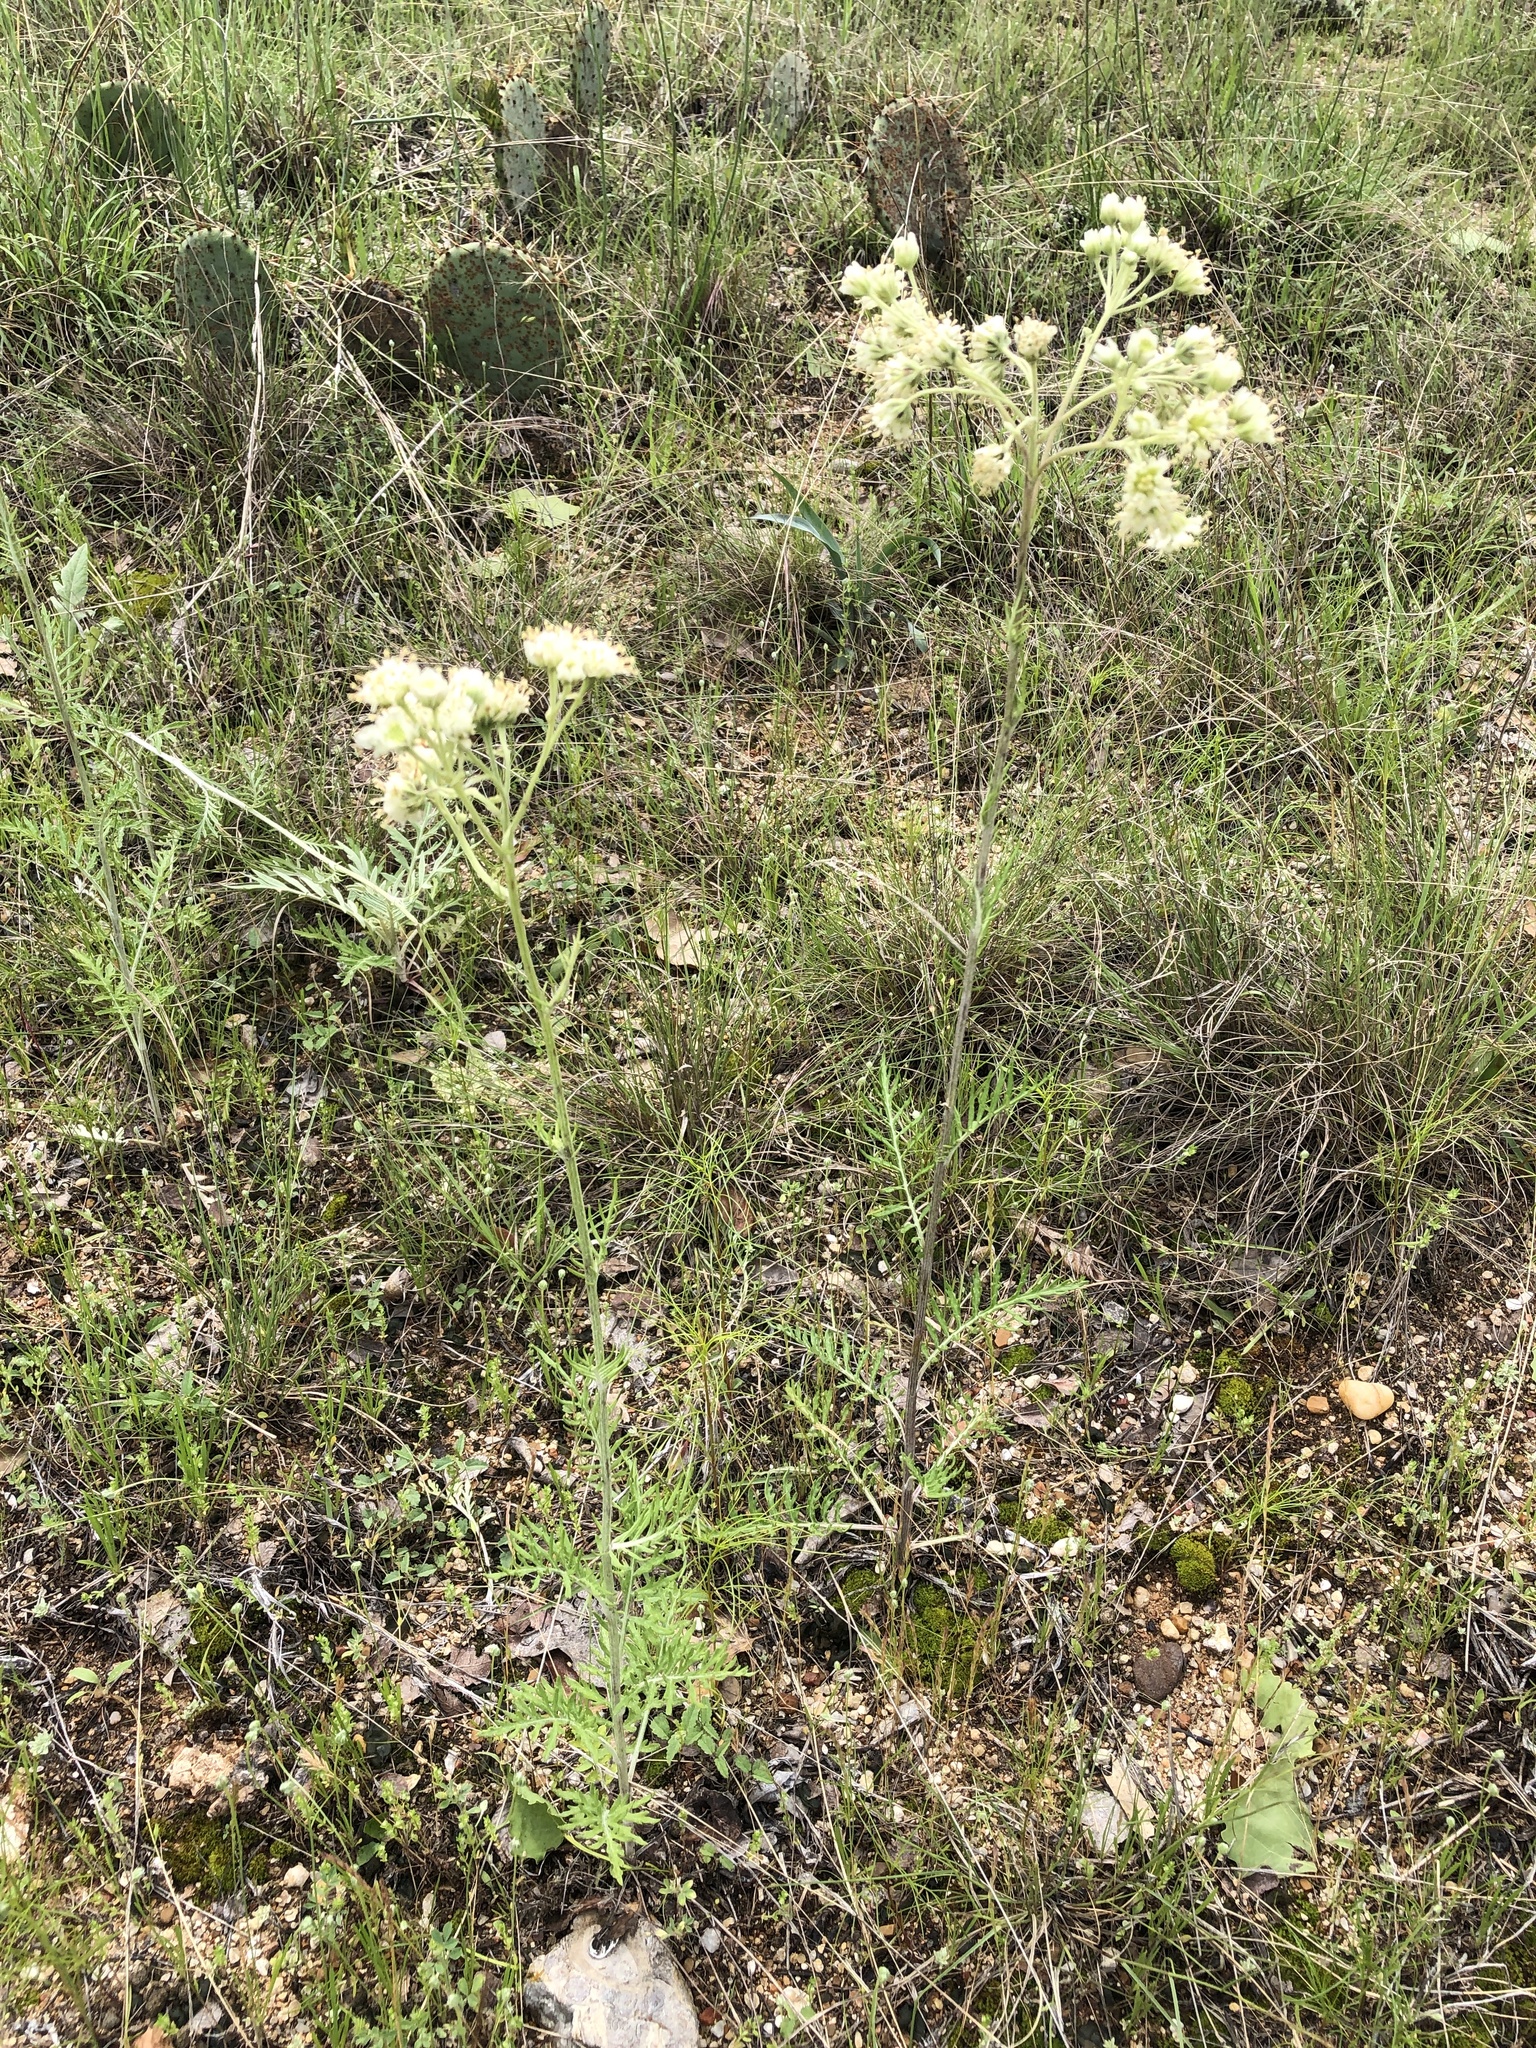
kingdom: Plantae
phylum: Tracheophyta
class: Magnoliopsida
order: Asterales
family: Asteraceae
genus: Hymenopappus
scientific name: Hymenopappus scabiosaeus
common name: Carolina woollywhite
